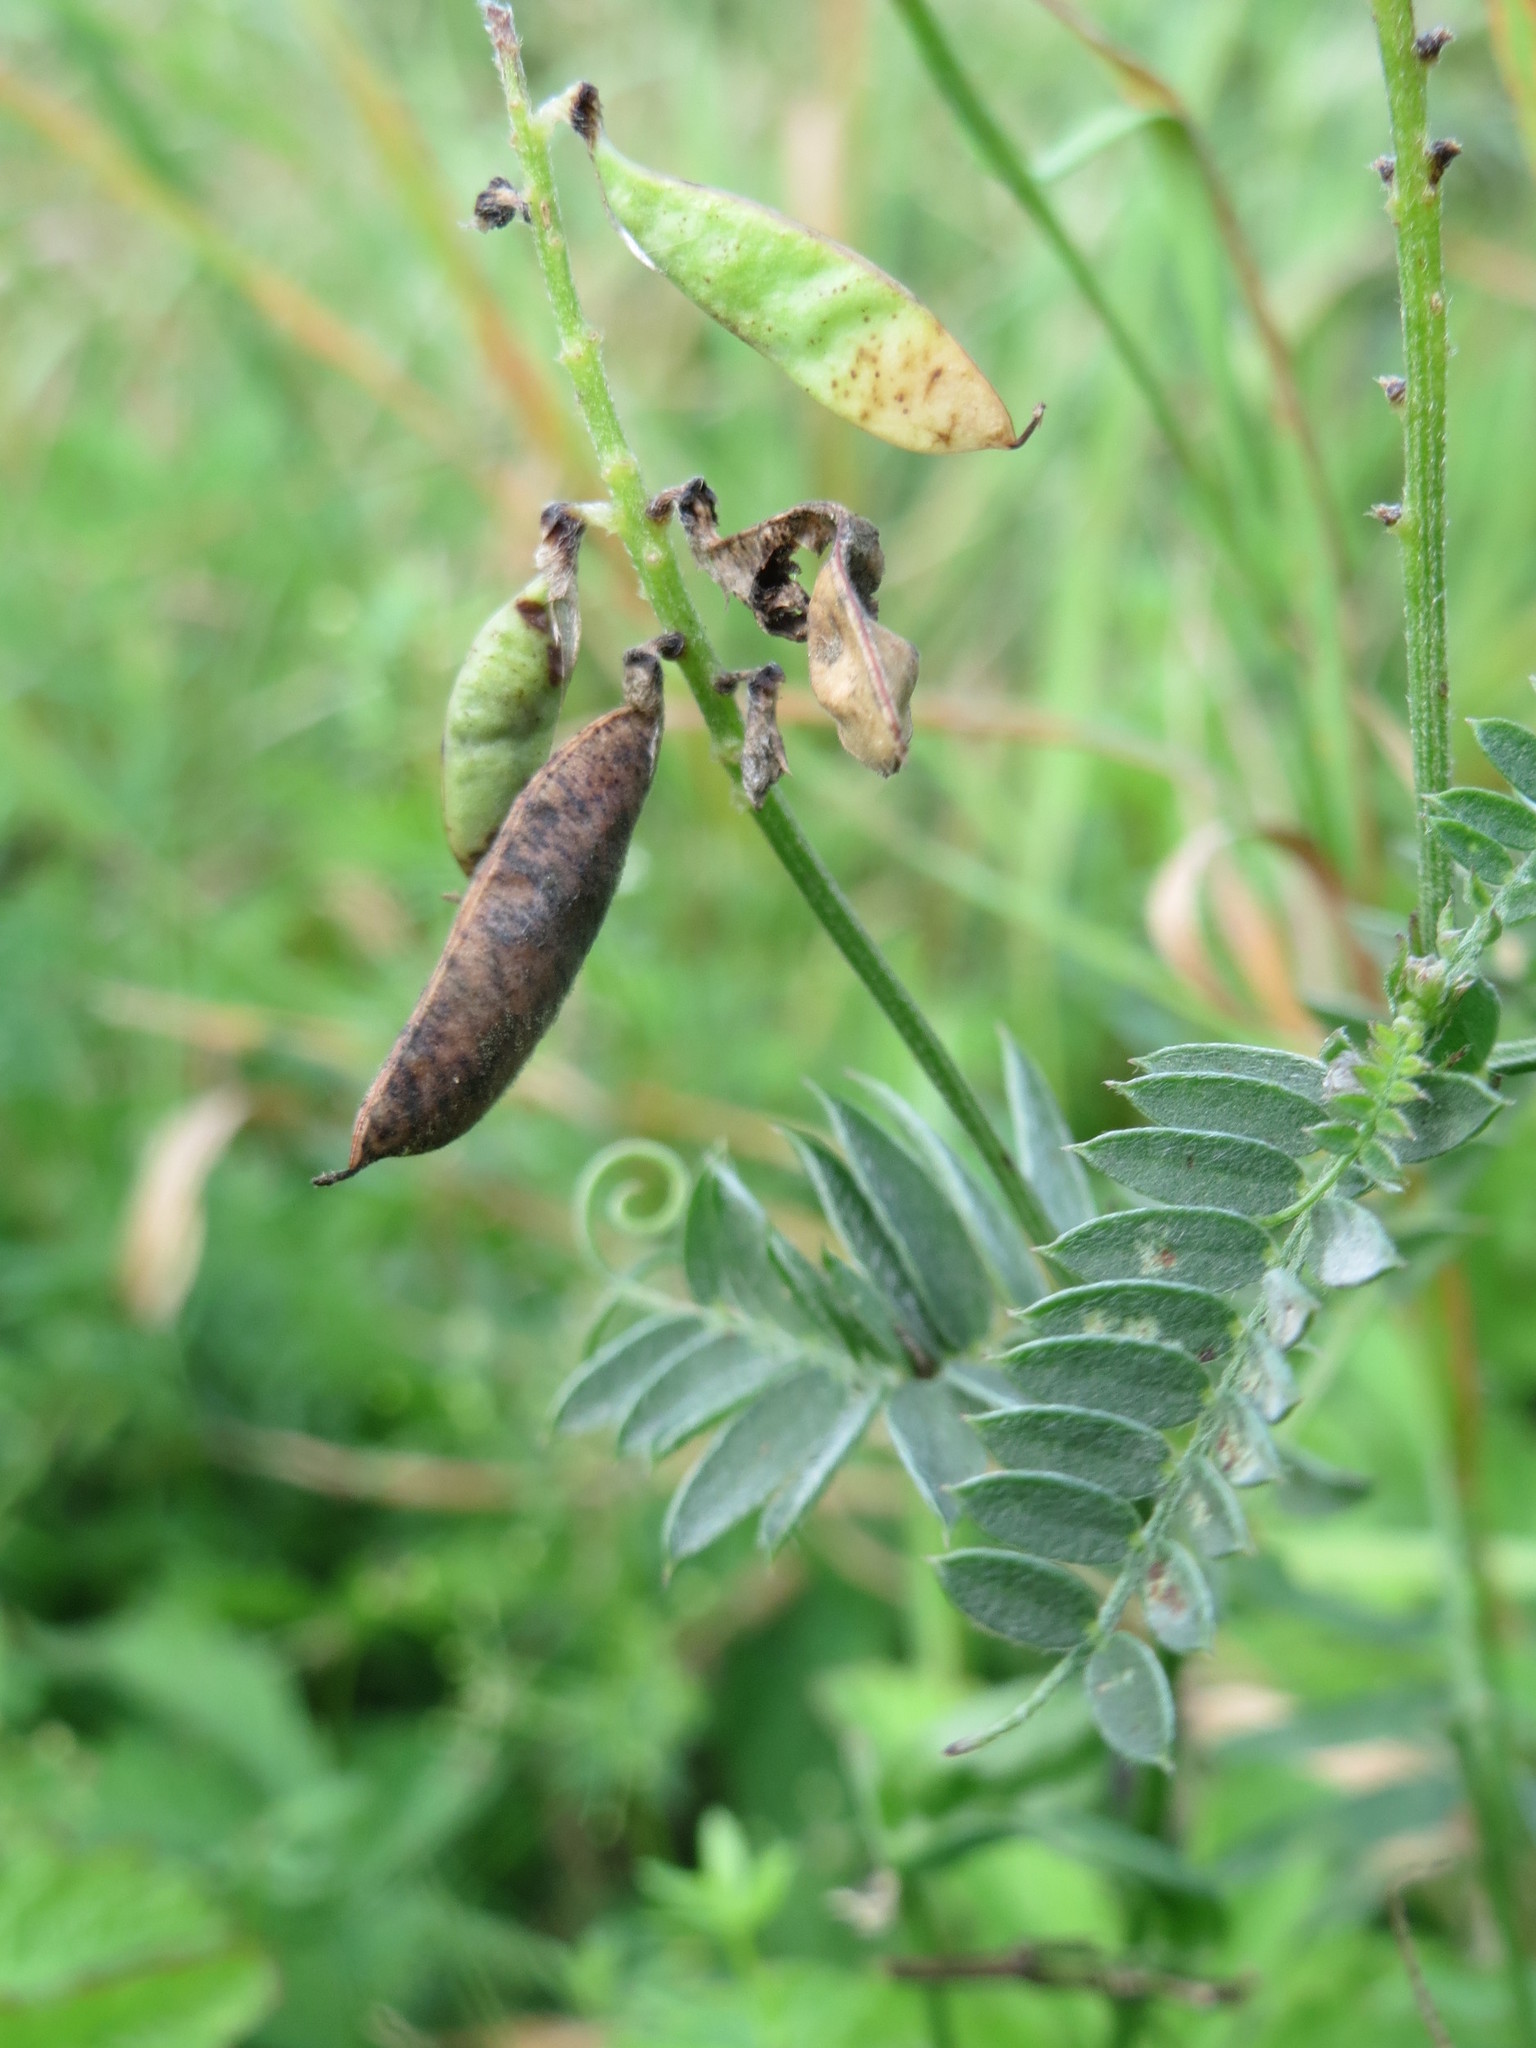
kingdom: Plantae
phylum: Tracheophyta
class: Magnoliopsida
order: Fabales
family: Fabaceae
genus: Vicia
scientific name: Vicia cracca
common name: Bird vetch
